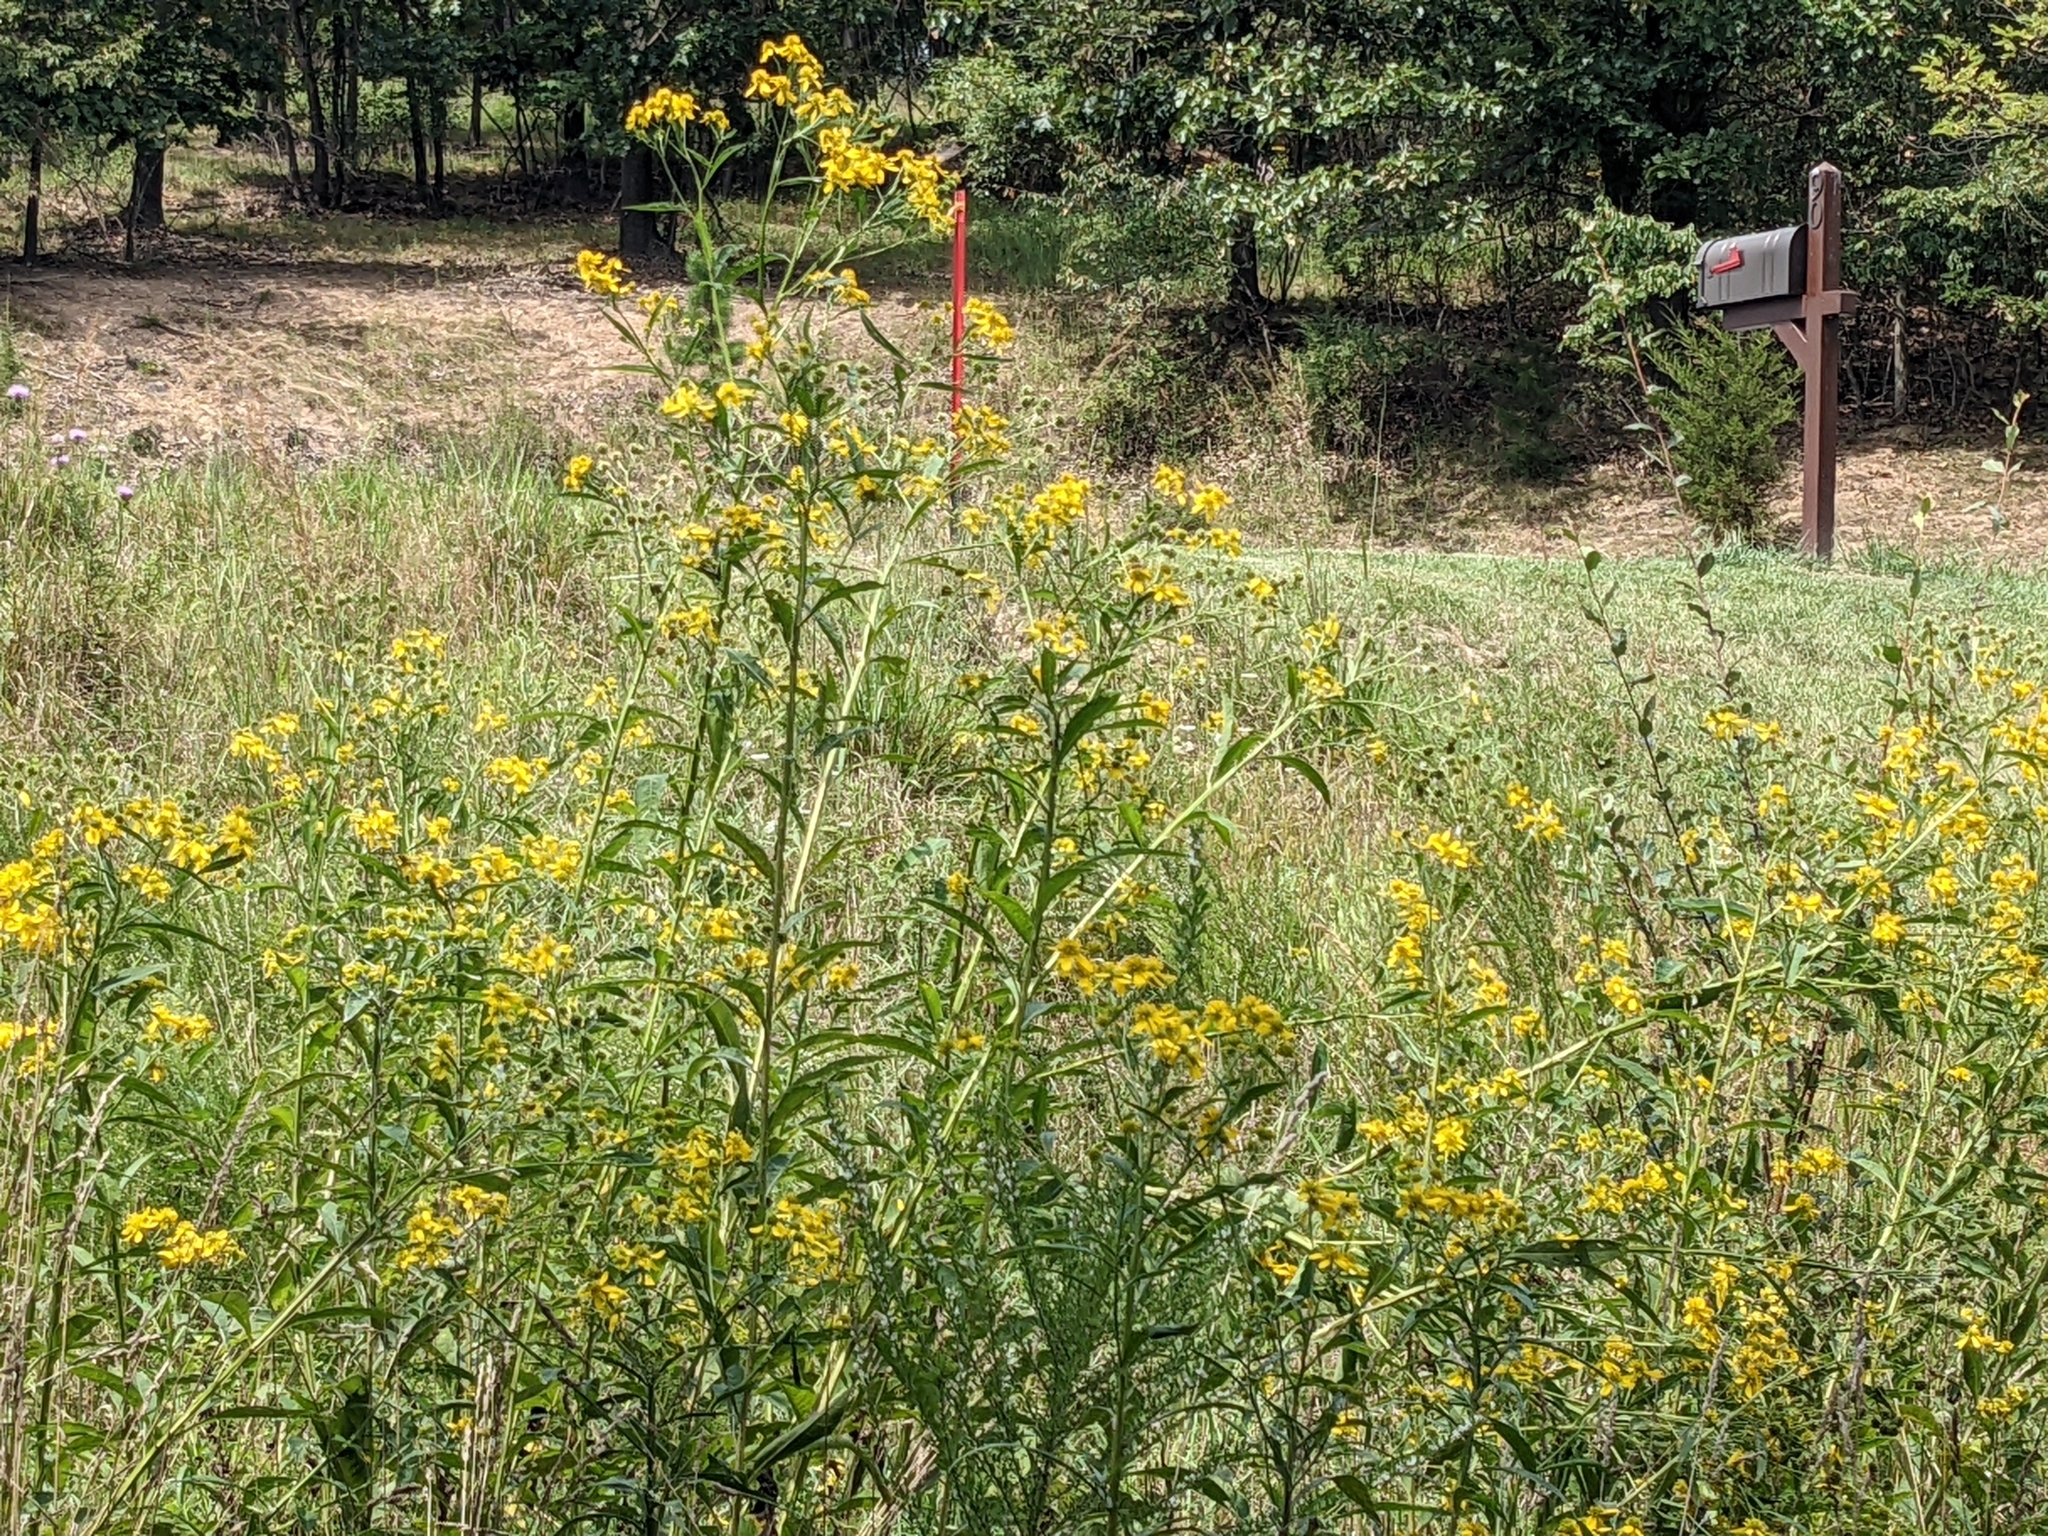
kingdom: Plantae
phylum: Tracheophyta
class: Magnoliopsida
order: Asterales
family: Asteraceae
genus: Verbesina
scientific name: Verbesina alternifolia
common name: Wingstem
